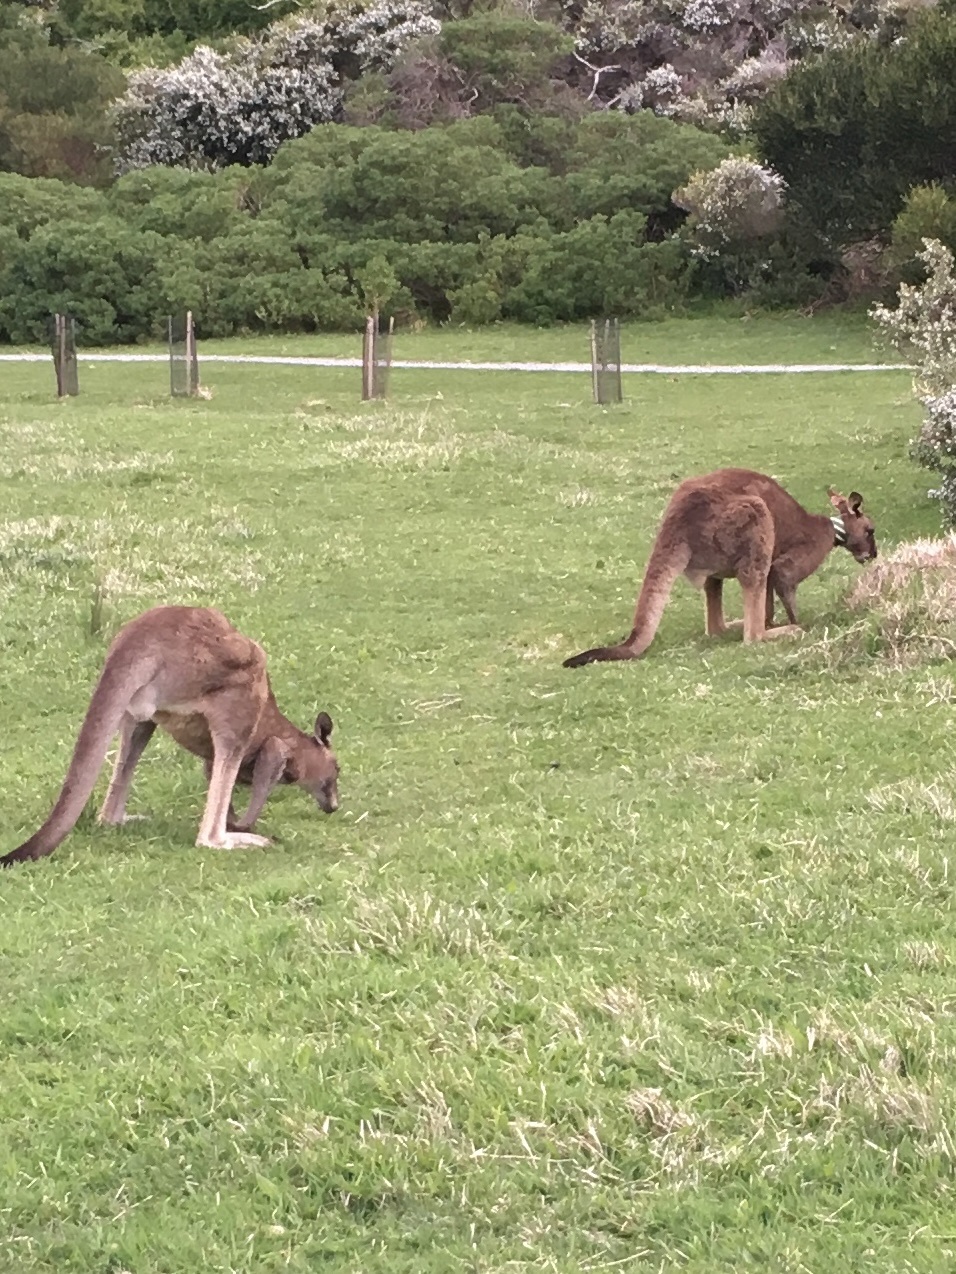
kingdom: Animalia
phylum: Chordata
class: Mammalia
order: Diprotodontia
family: Macropodidae
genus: Macropus
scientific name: Macropus giganteus
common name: Eastern grey kangaroo
